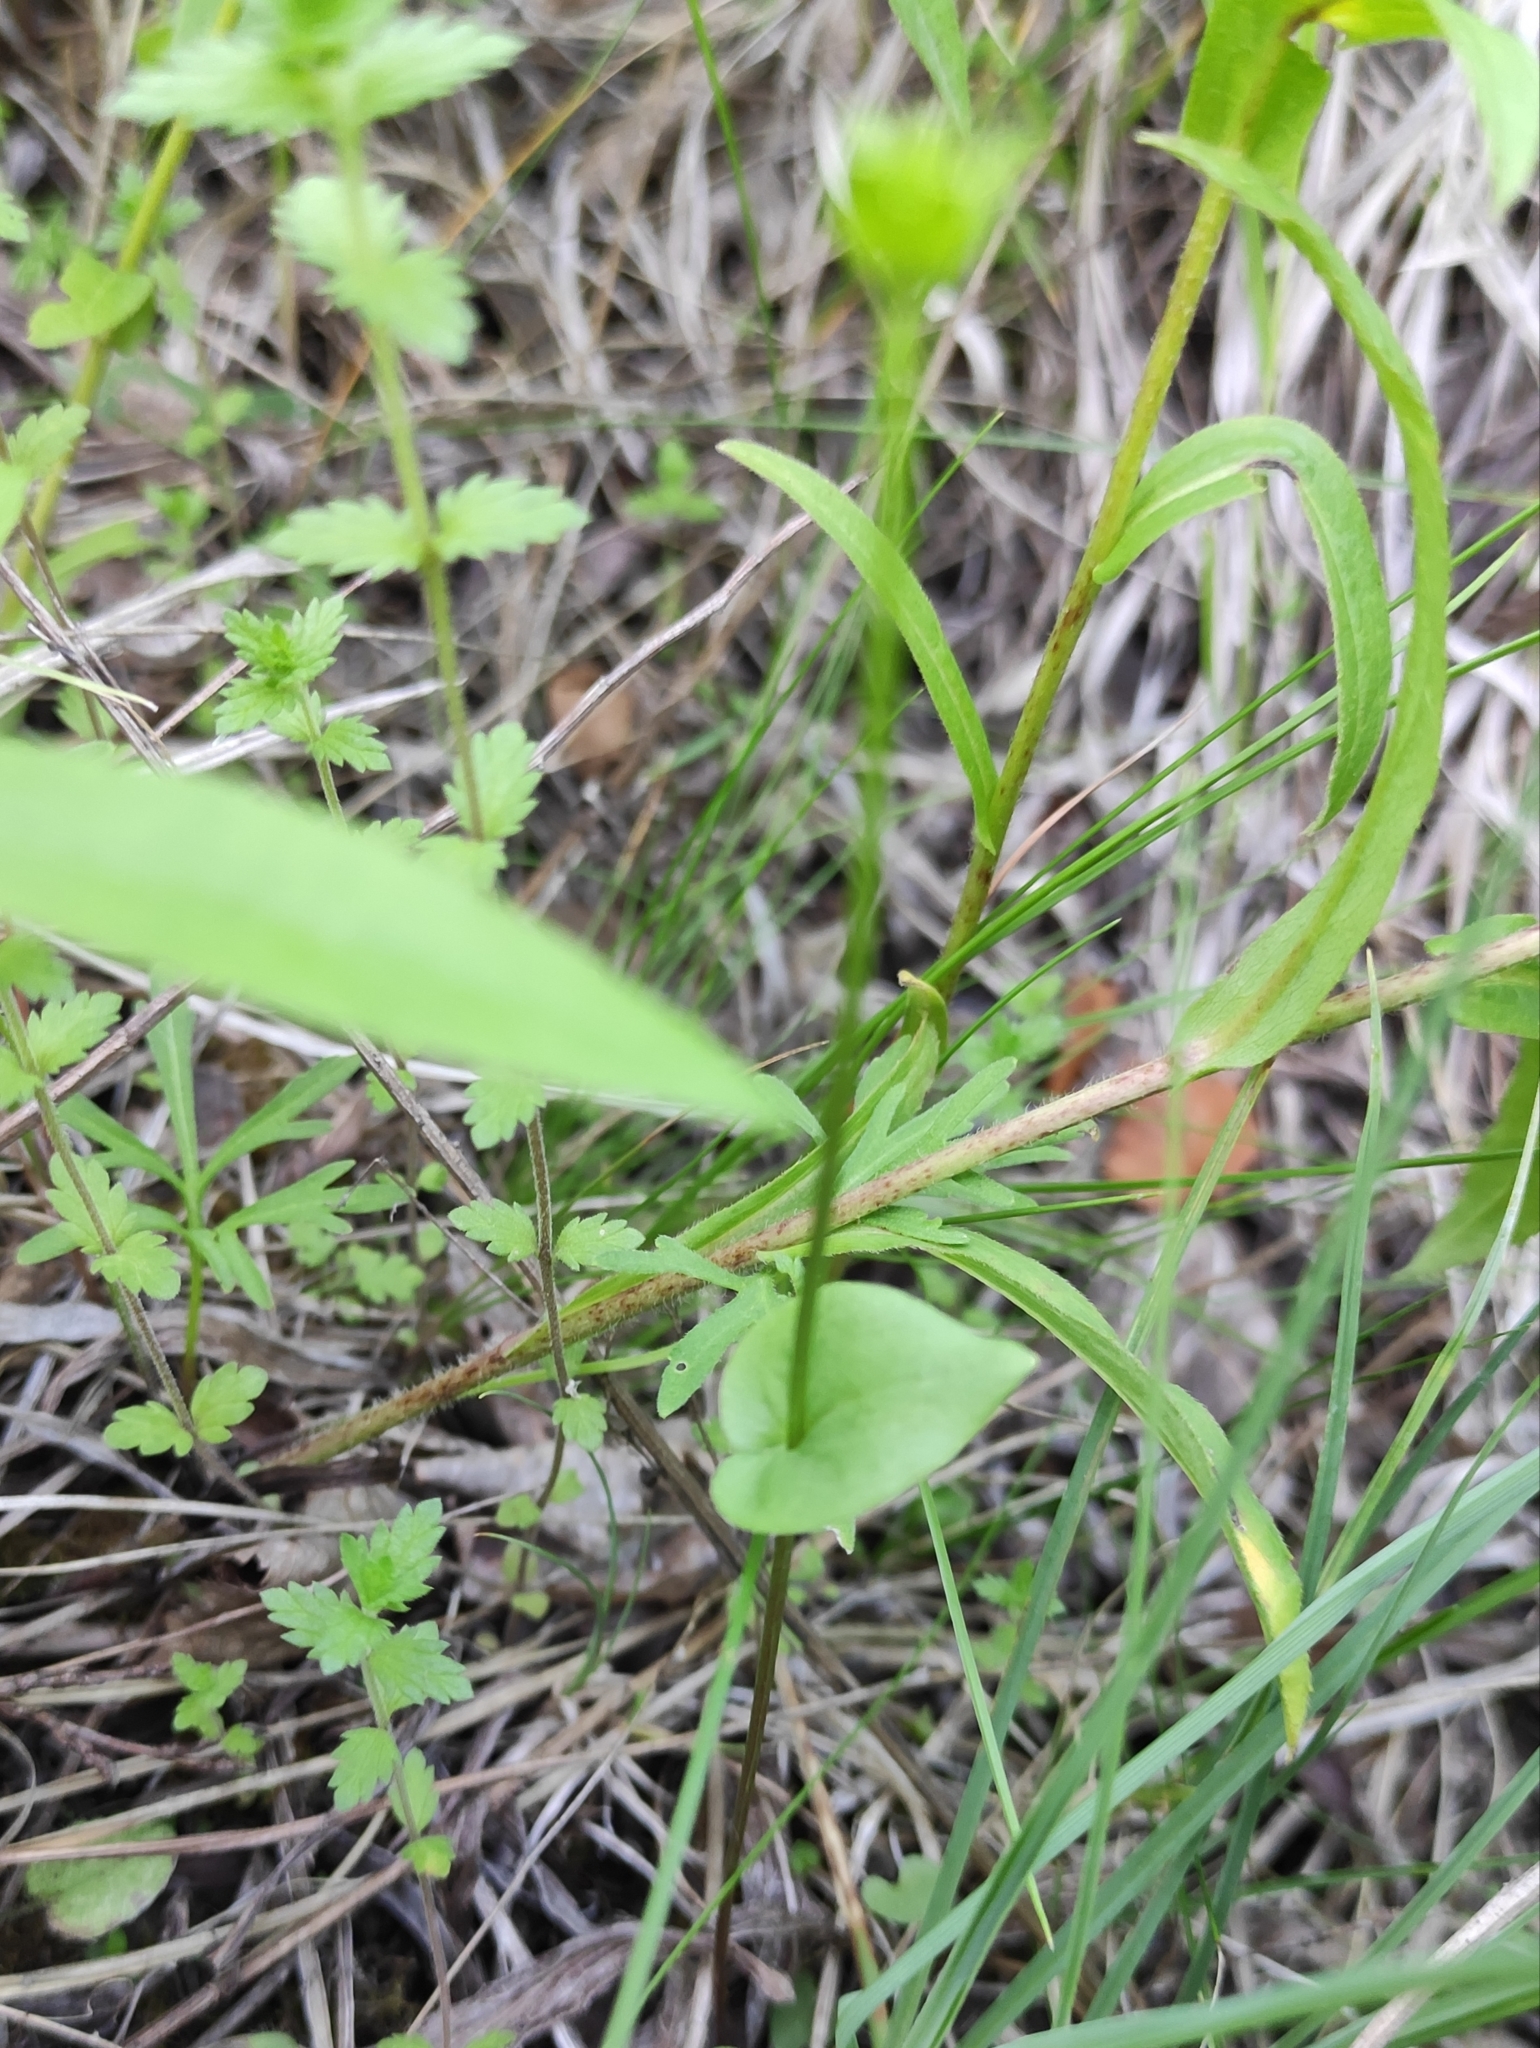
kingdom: Plantae
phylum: Tracheophyta
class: Magnoliopsida
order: Celastrales
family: Parnassiaceae
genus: Parnassia
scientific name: Parnassia palustris
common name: Grass-of-parnassus
